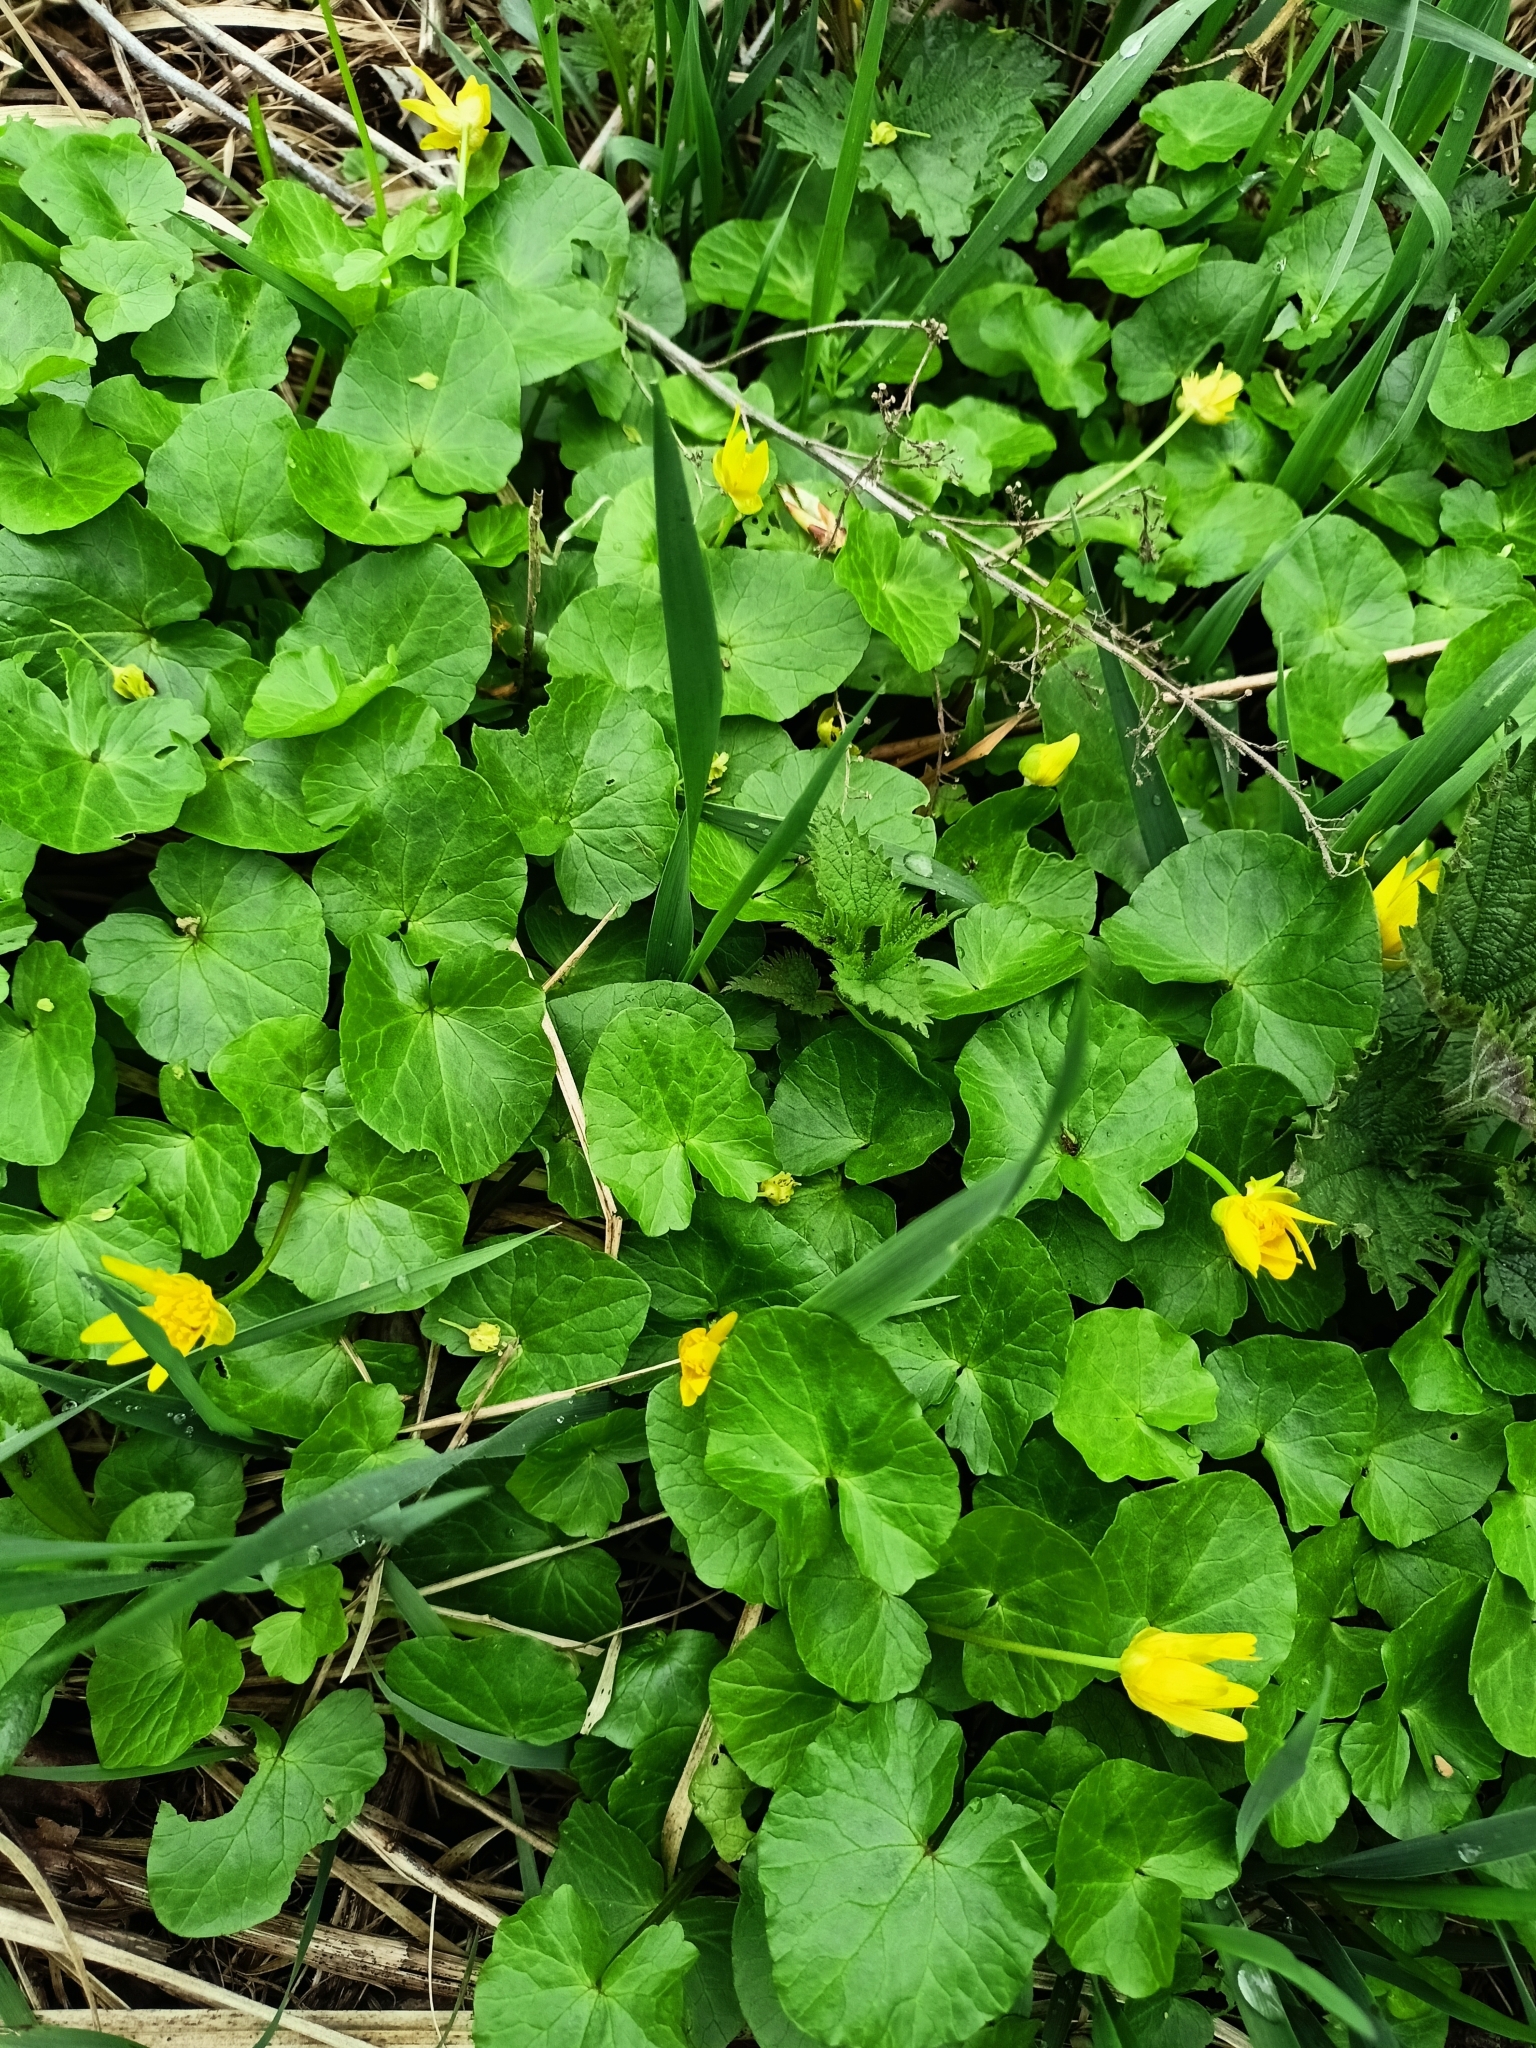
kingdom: Plantae
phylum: Tracheophyta
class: Magnoliopsida
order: Ranunculales
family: Ranunculaceae
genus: Ficaria
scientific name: Ficaria verna
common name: Lesser celandine
